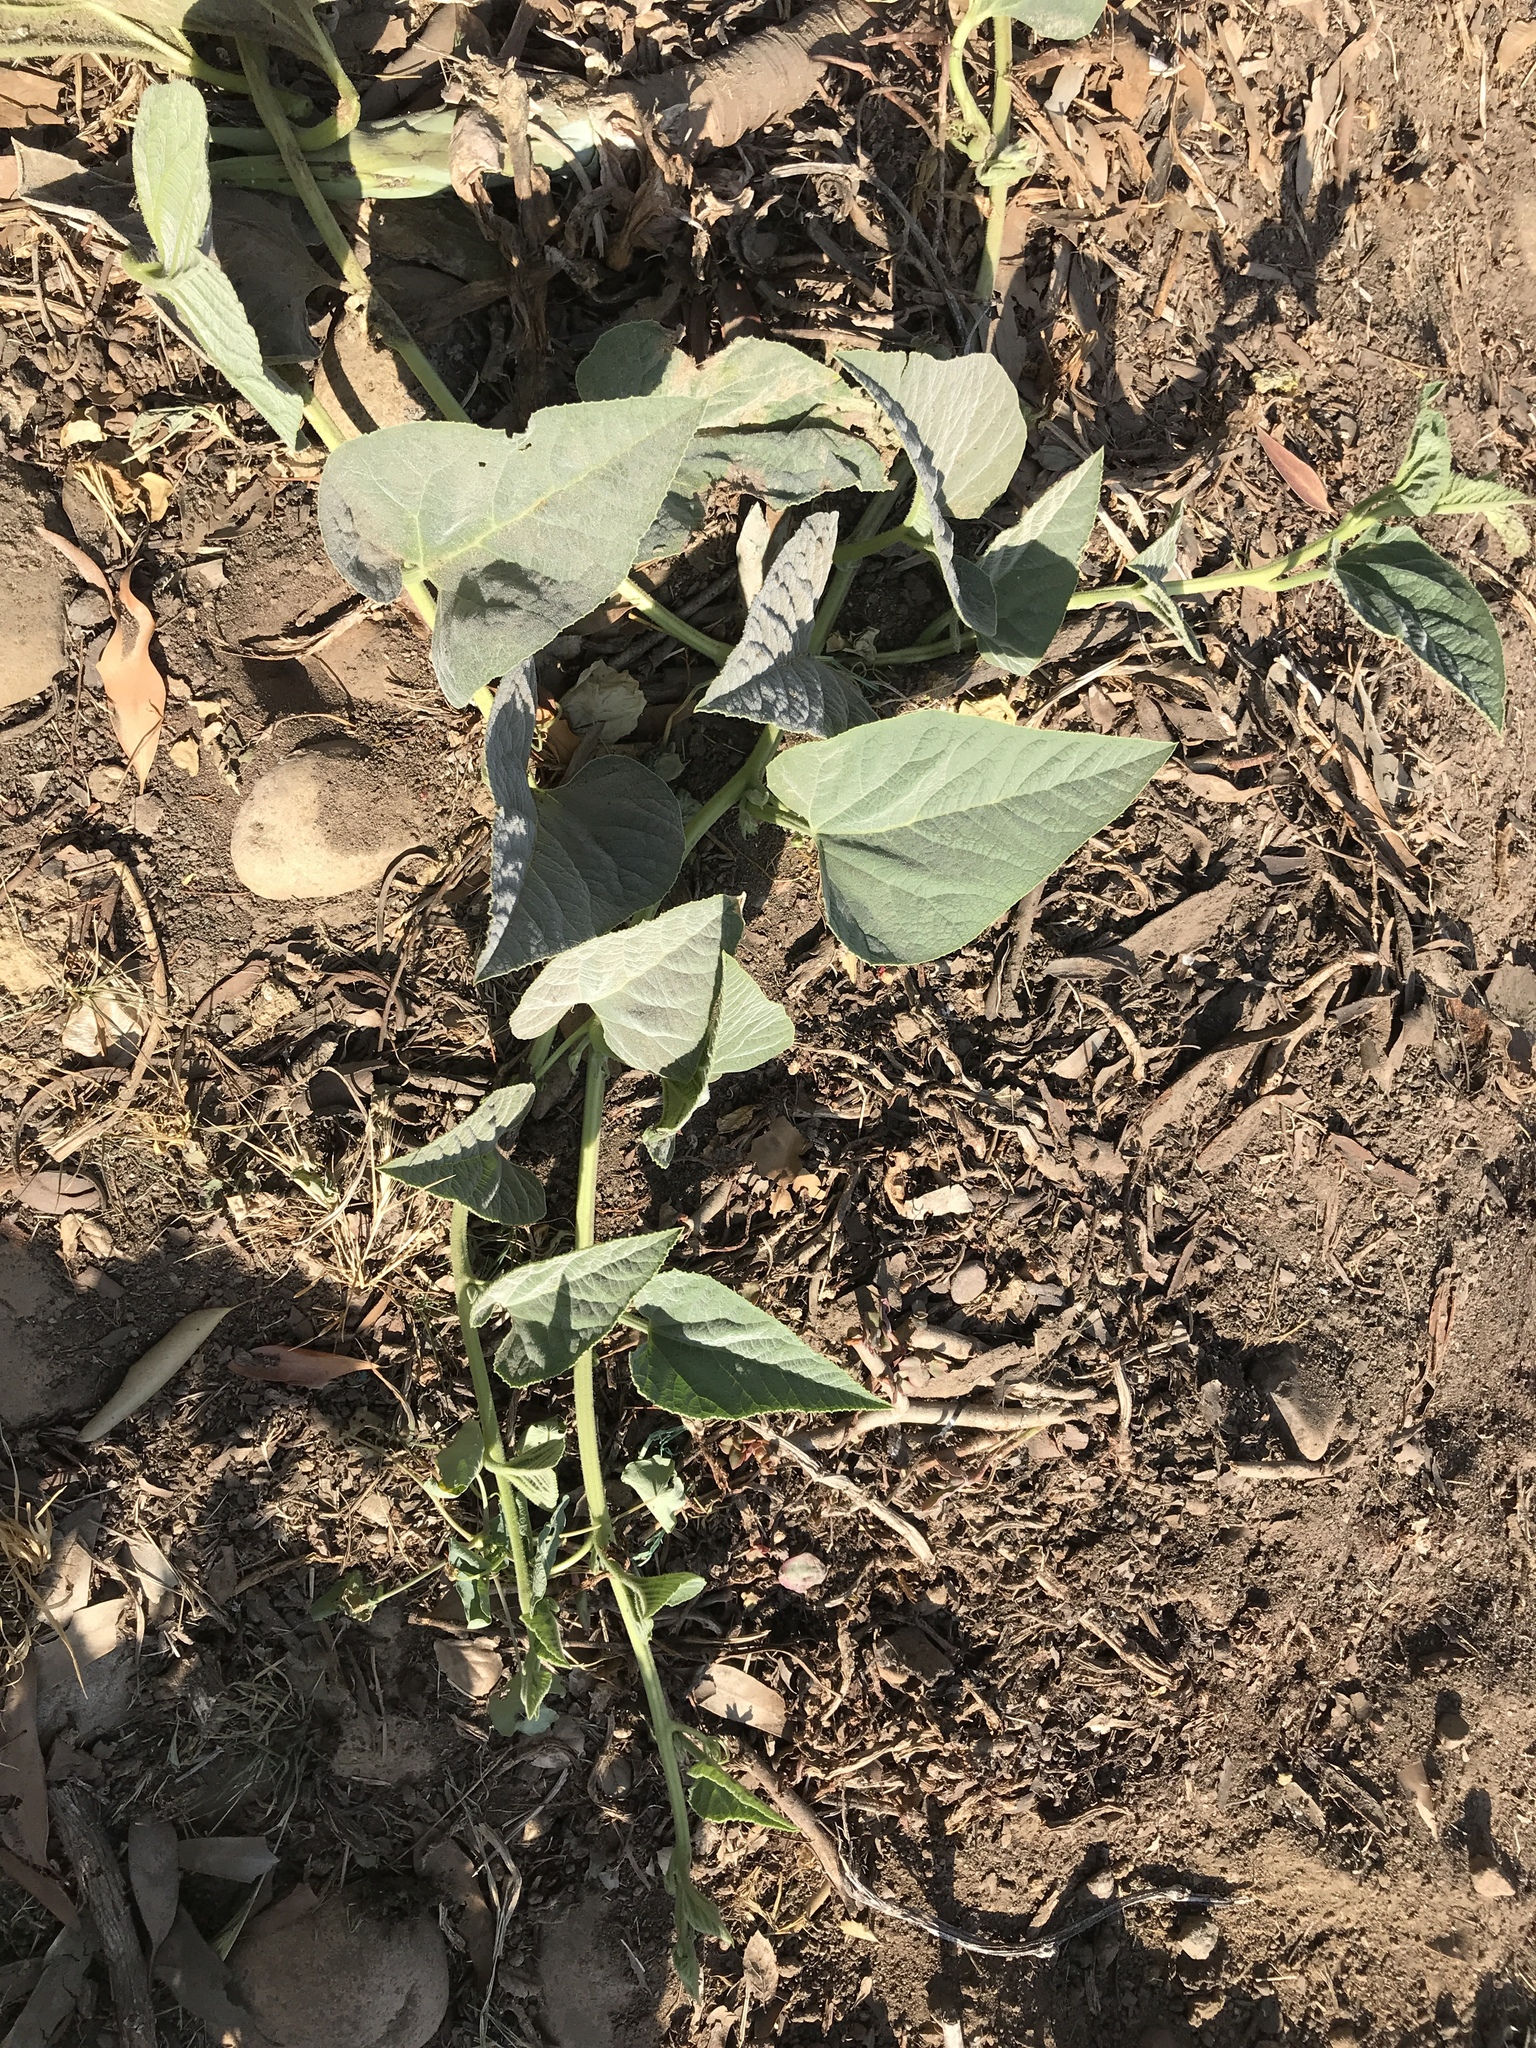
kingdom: Plantae
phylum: Tracheophyta
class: Magnoliopsida
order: Cucurbitales
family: Cucurbitaceae
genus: Cucurbita
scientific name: Cucurbita foetidissima
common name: Buffalo gourd
